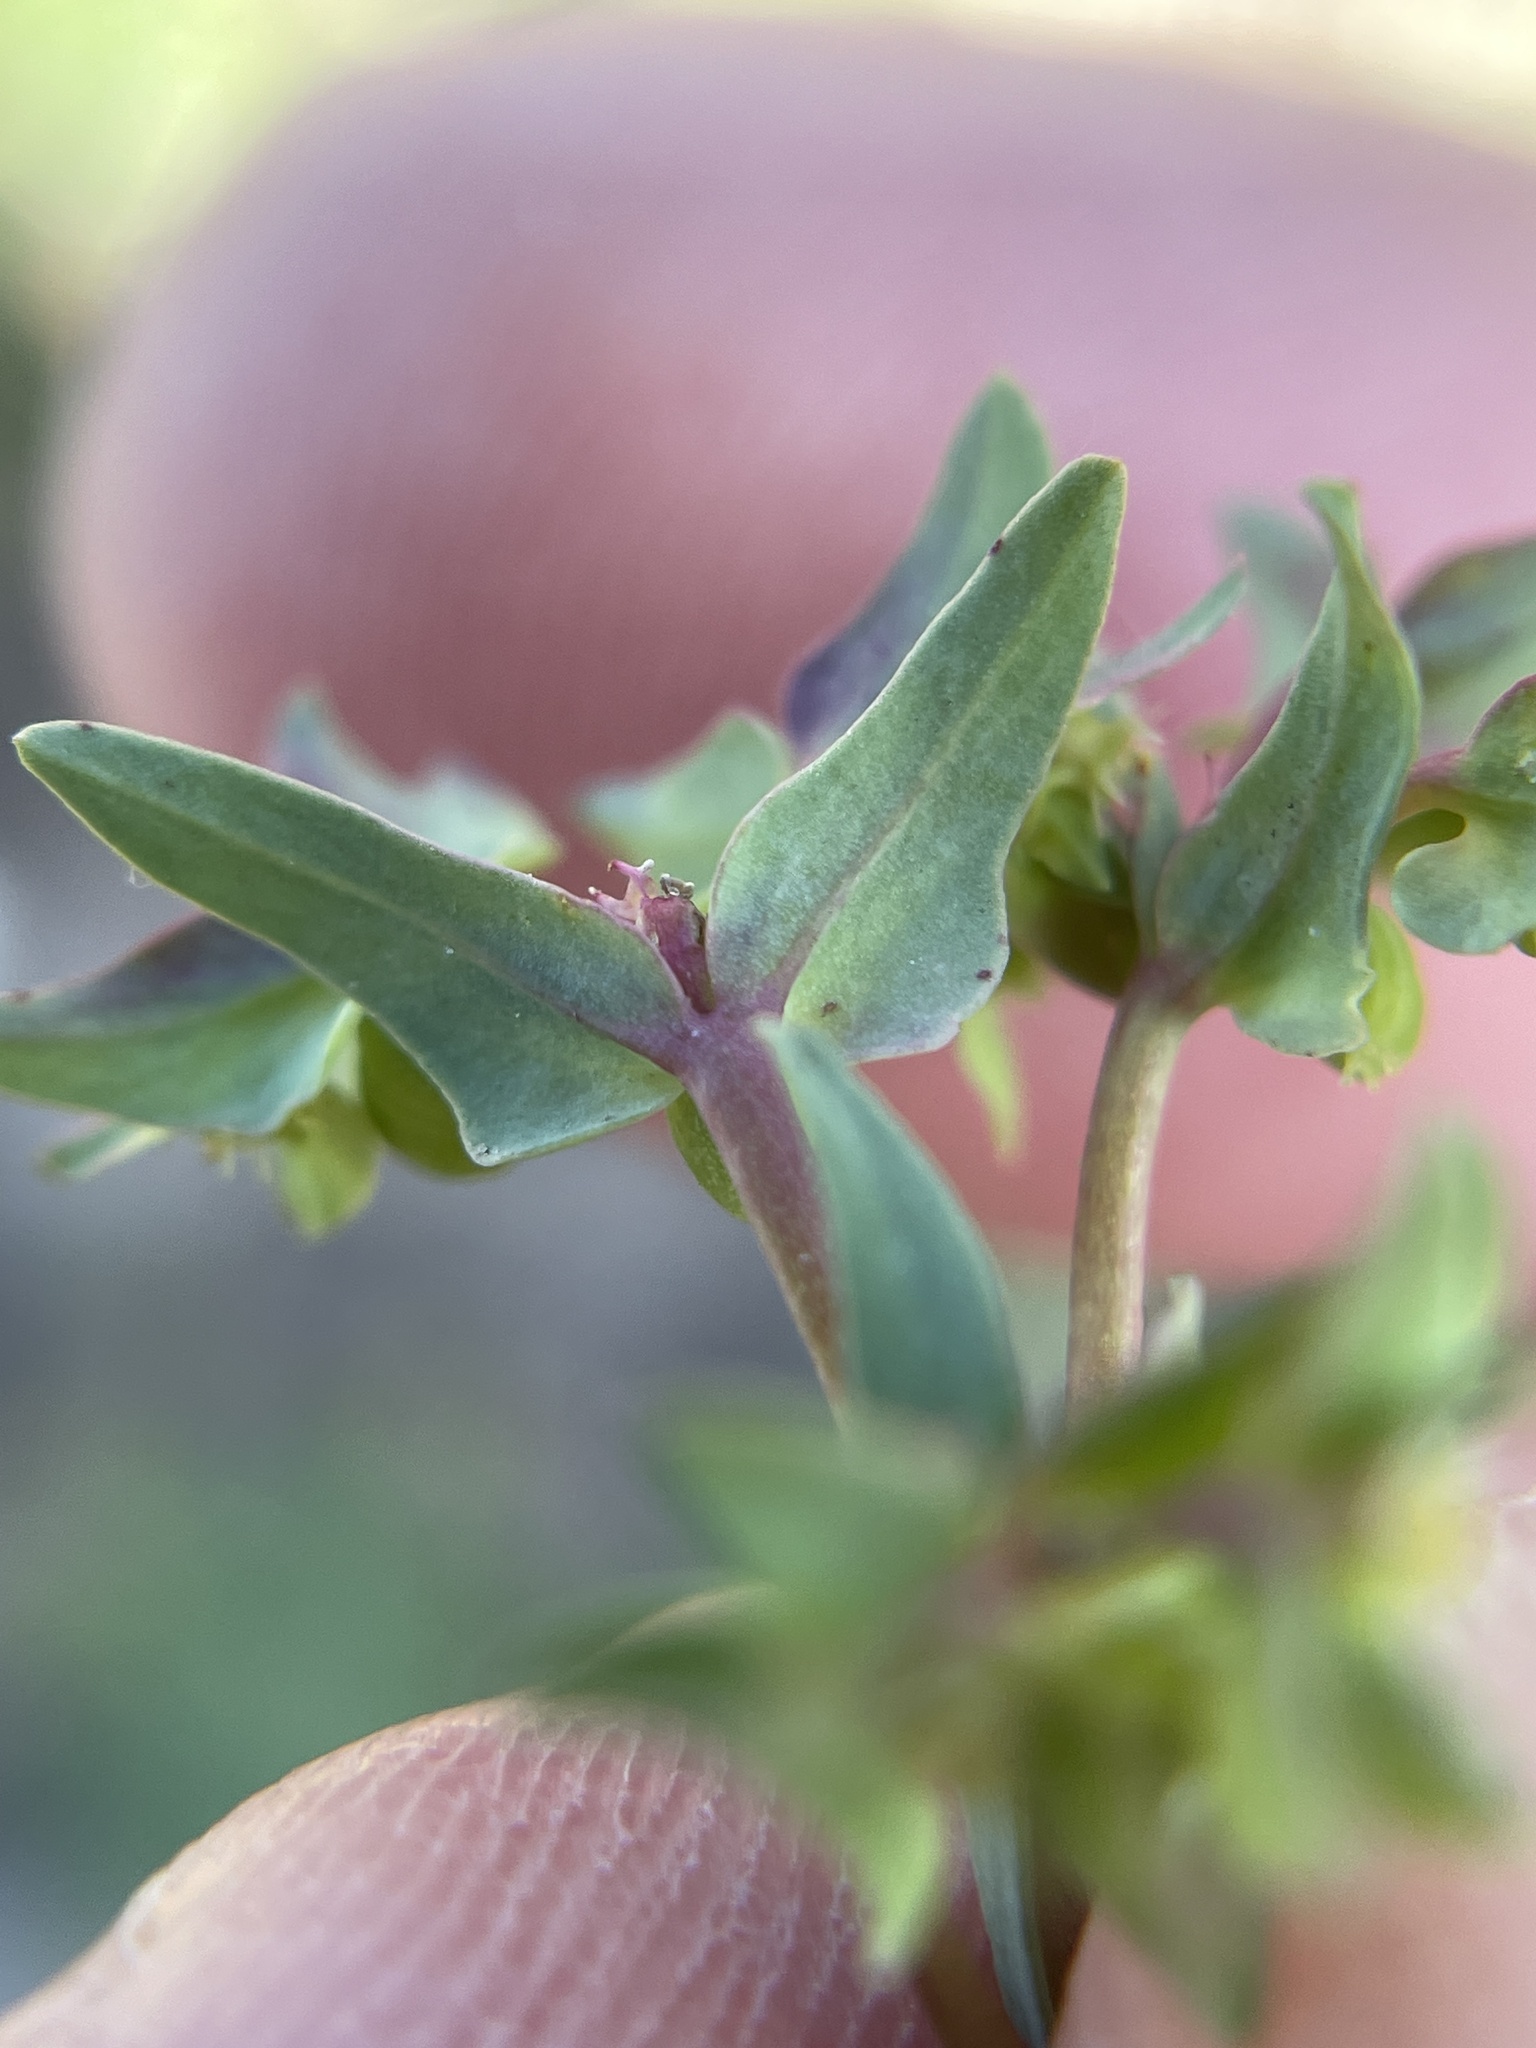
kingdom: Plantae
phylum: Tracheophyta
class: Magnoliopsida
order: Malpighiales
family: Euphorbiaceae
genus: Euphorbia
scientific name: Euphorbia peplidion
